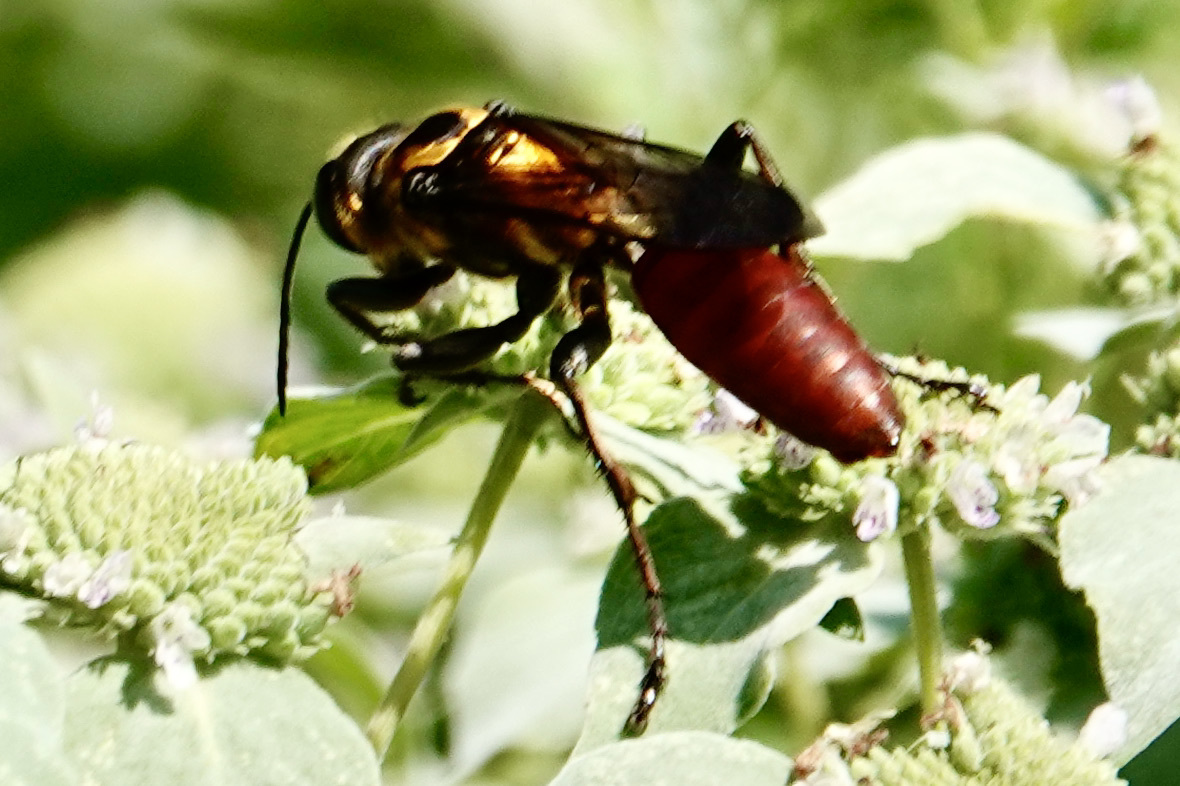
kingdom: Animalia
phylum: Arthropoda
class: Insecta
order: Hymenoptera
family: Sphecidae
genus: Sphex
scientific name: Sphex habenus
